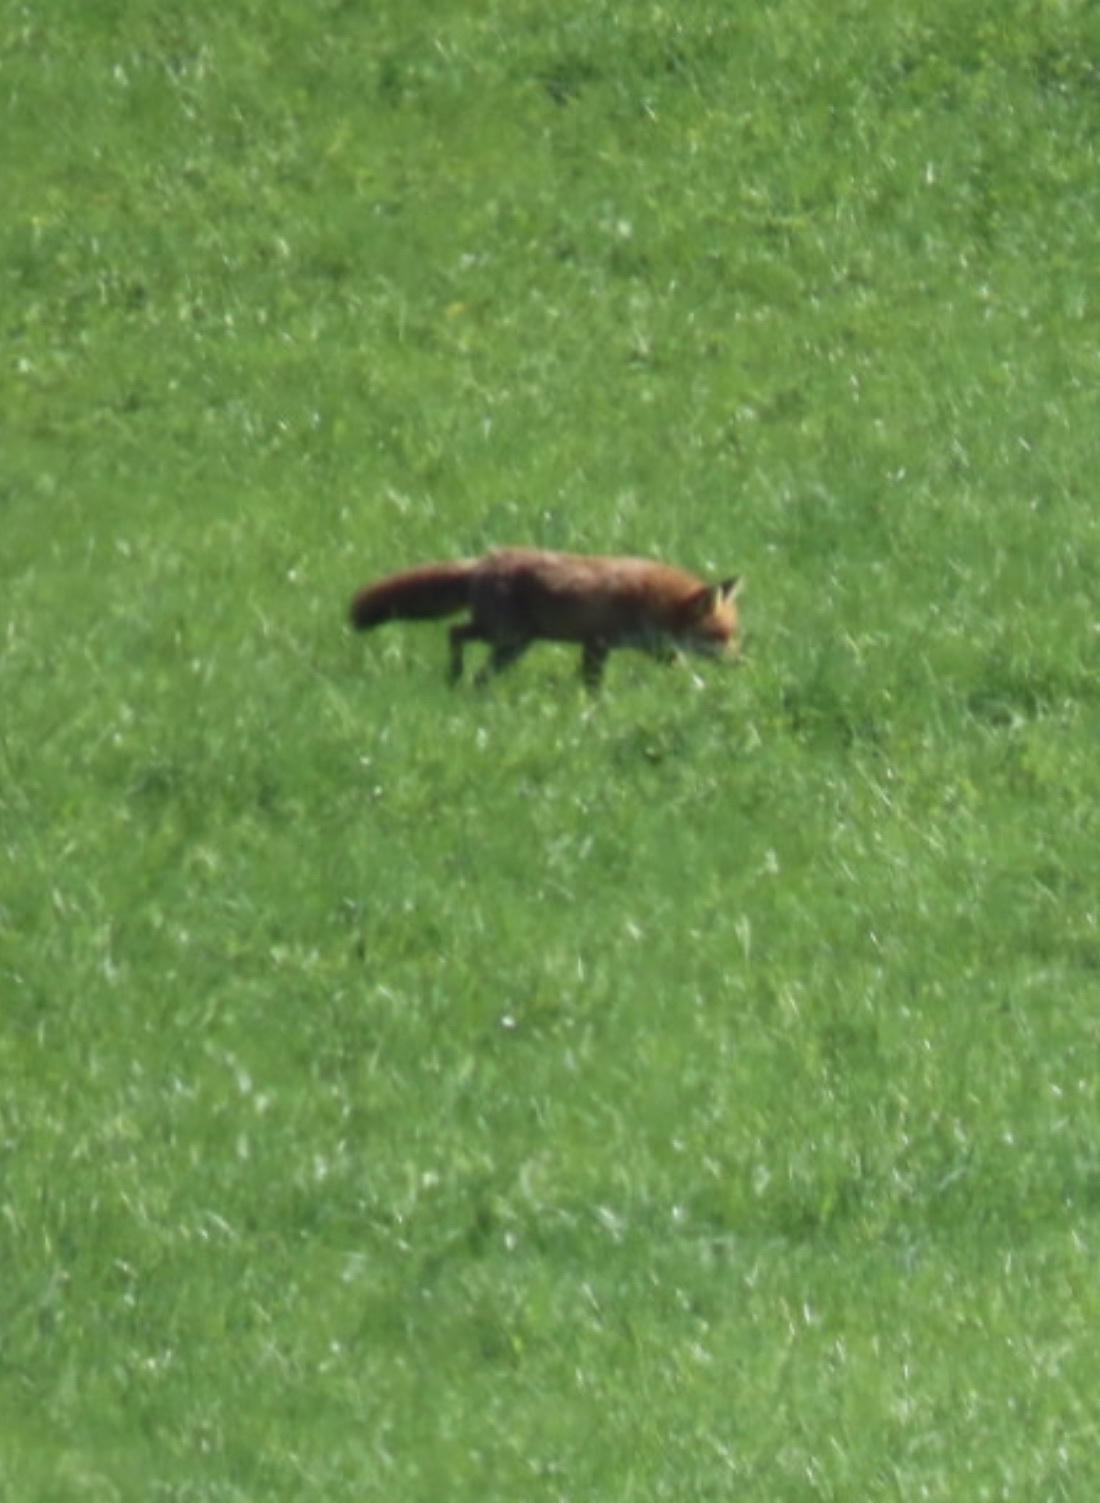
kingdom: Animalia
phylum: Chordata
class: Mammalia
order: Carnivora
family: Canidae
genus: Vulpes
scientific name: Vulpes vulpes
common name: Red fox
